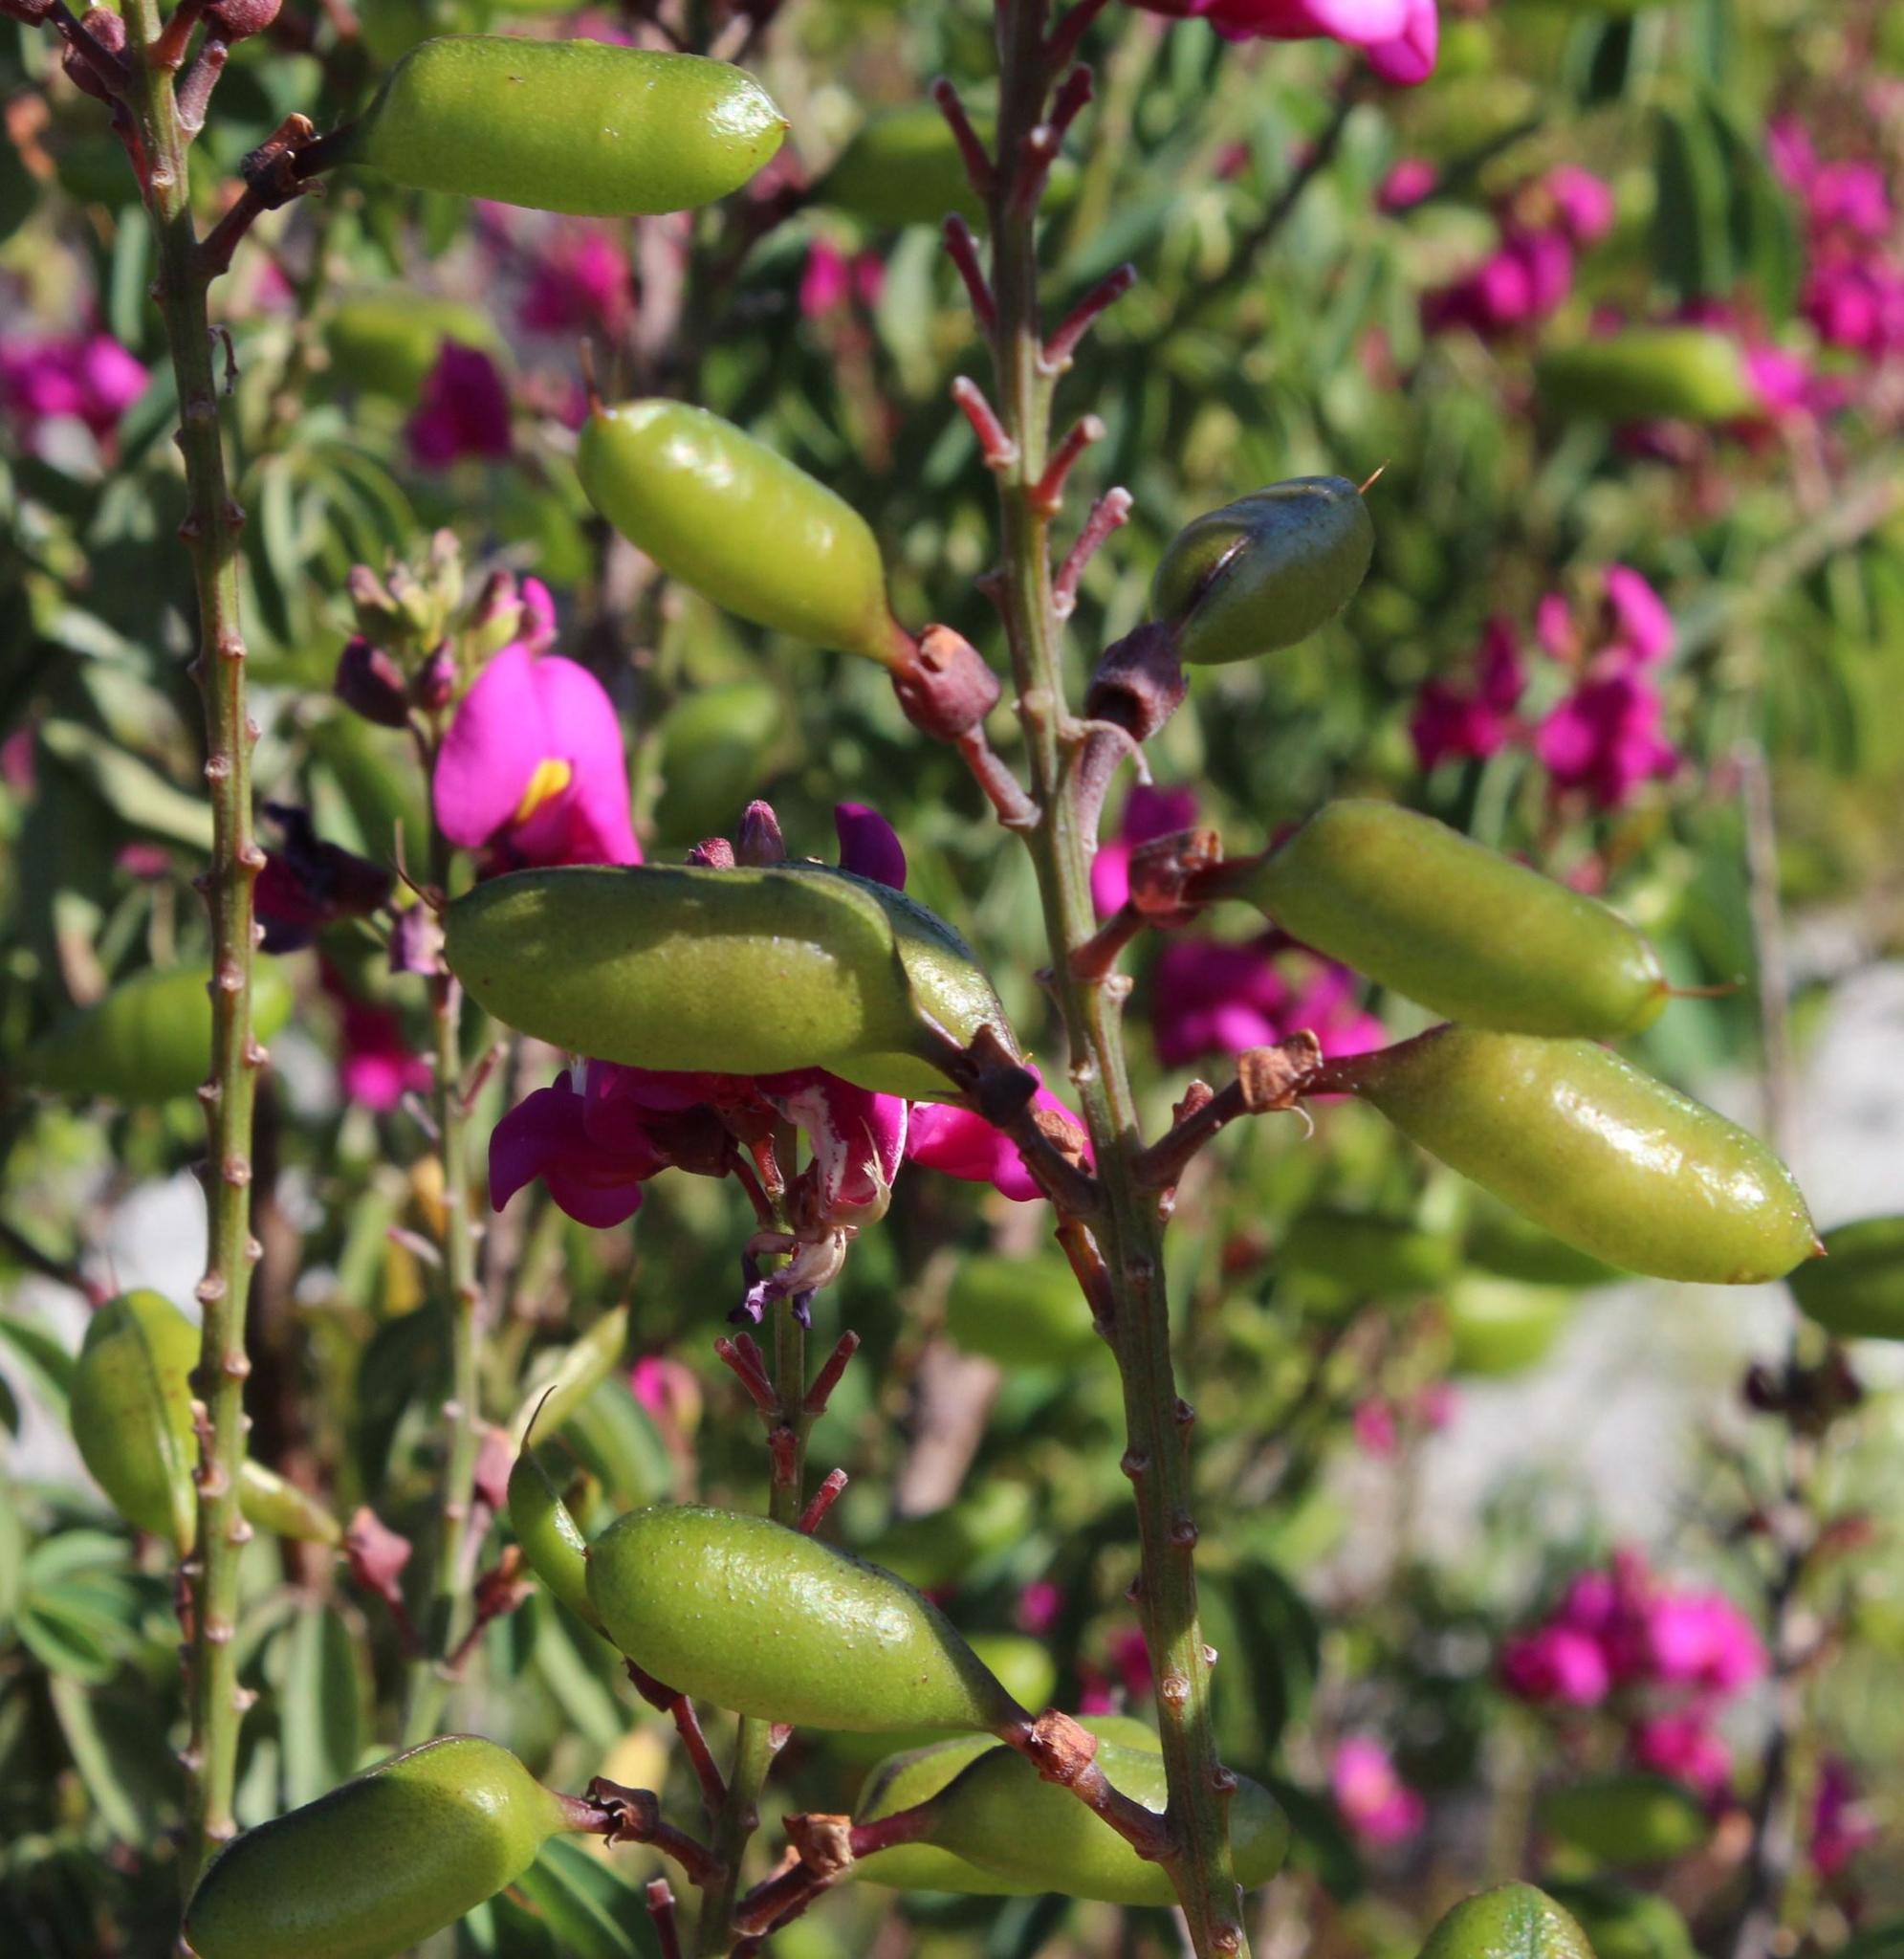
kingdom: Plantae
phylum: Tracheophyta
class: Magnoliopsida
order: Fabales
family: Fabaceae
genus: Hypocalyptus
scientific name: Hypocalyptus coluteoides
